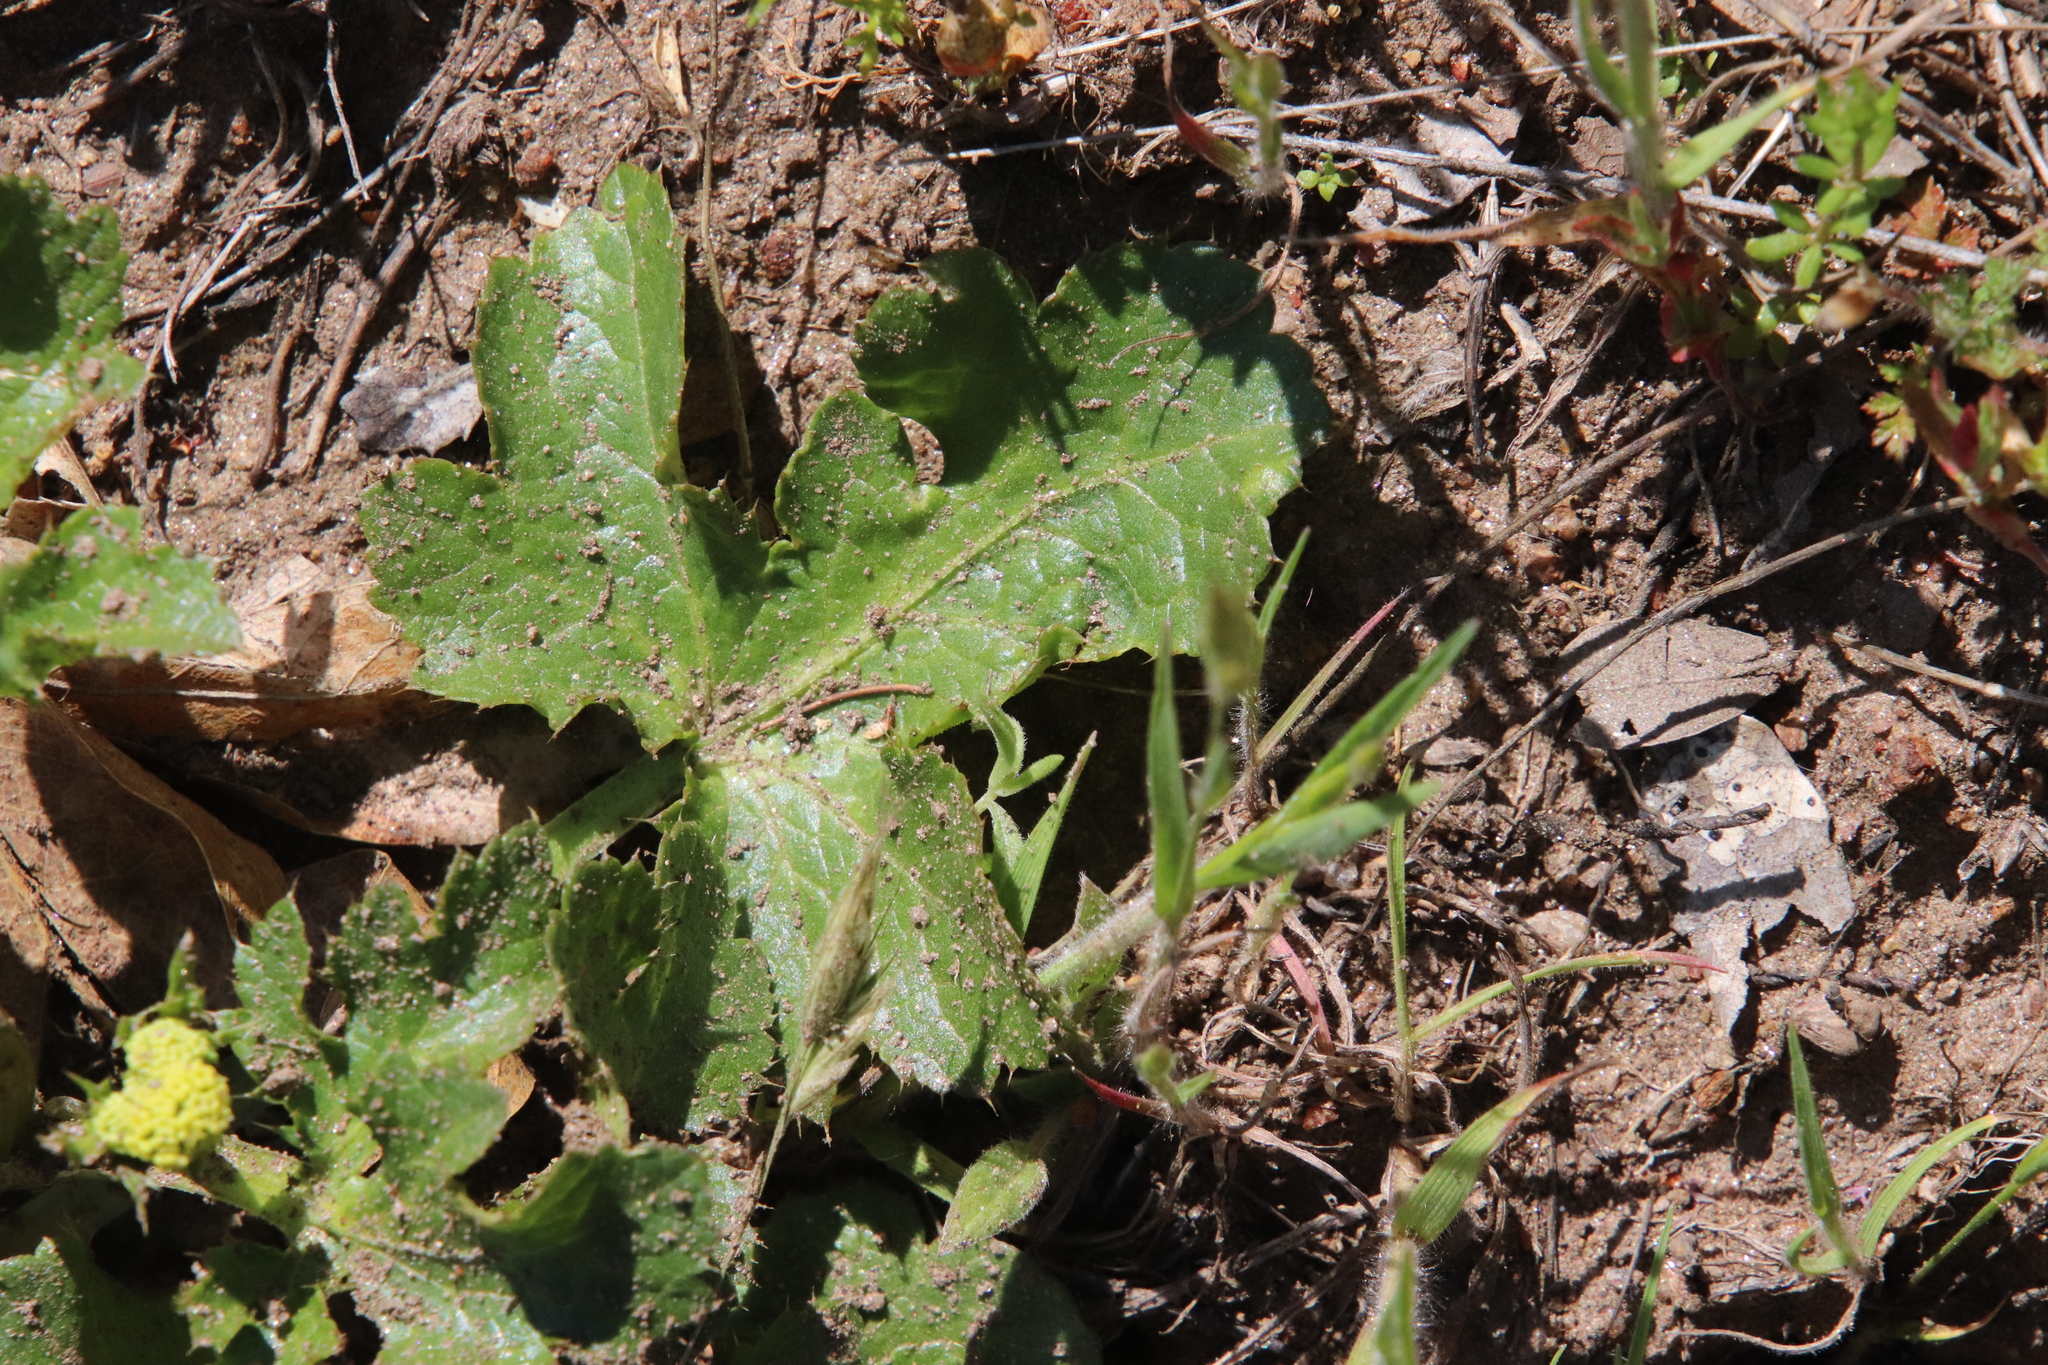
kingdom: Plantae
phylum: Tracheophyta
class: Magnoliopsida
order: Apiales
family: Apiaceae
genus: Sanicula
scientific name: Sanicula crassicaulis
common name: Western snakeroot
